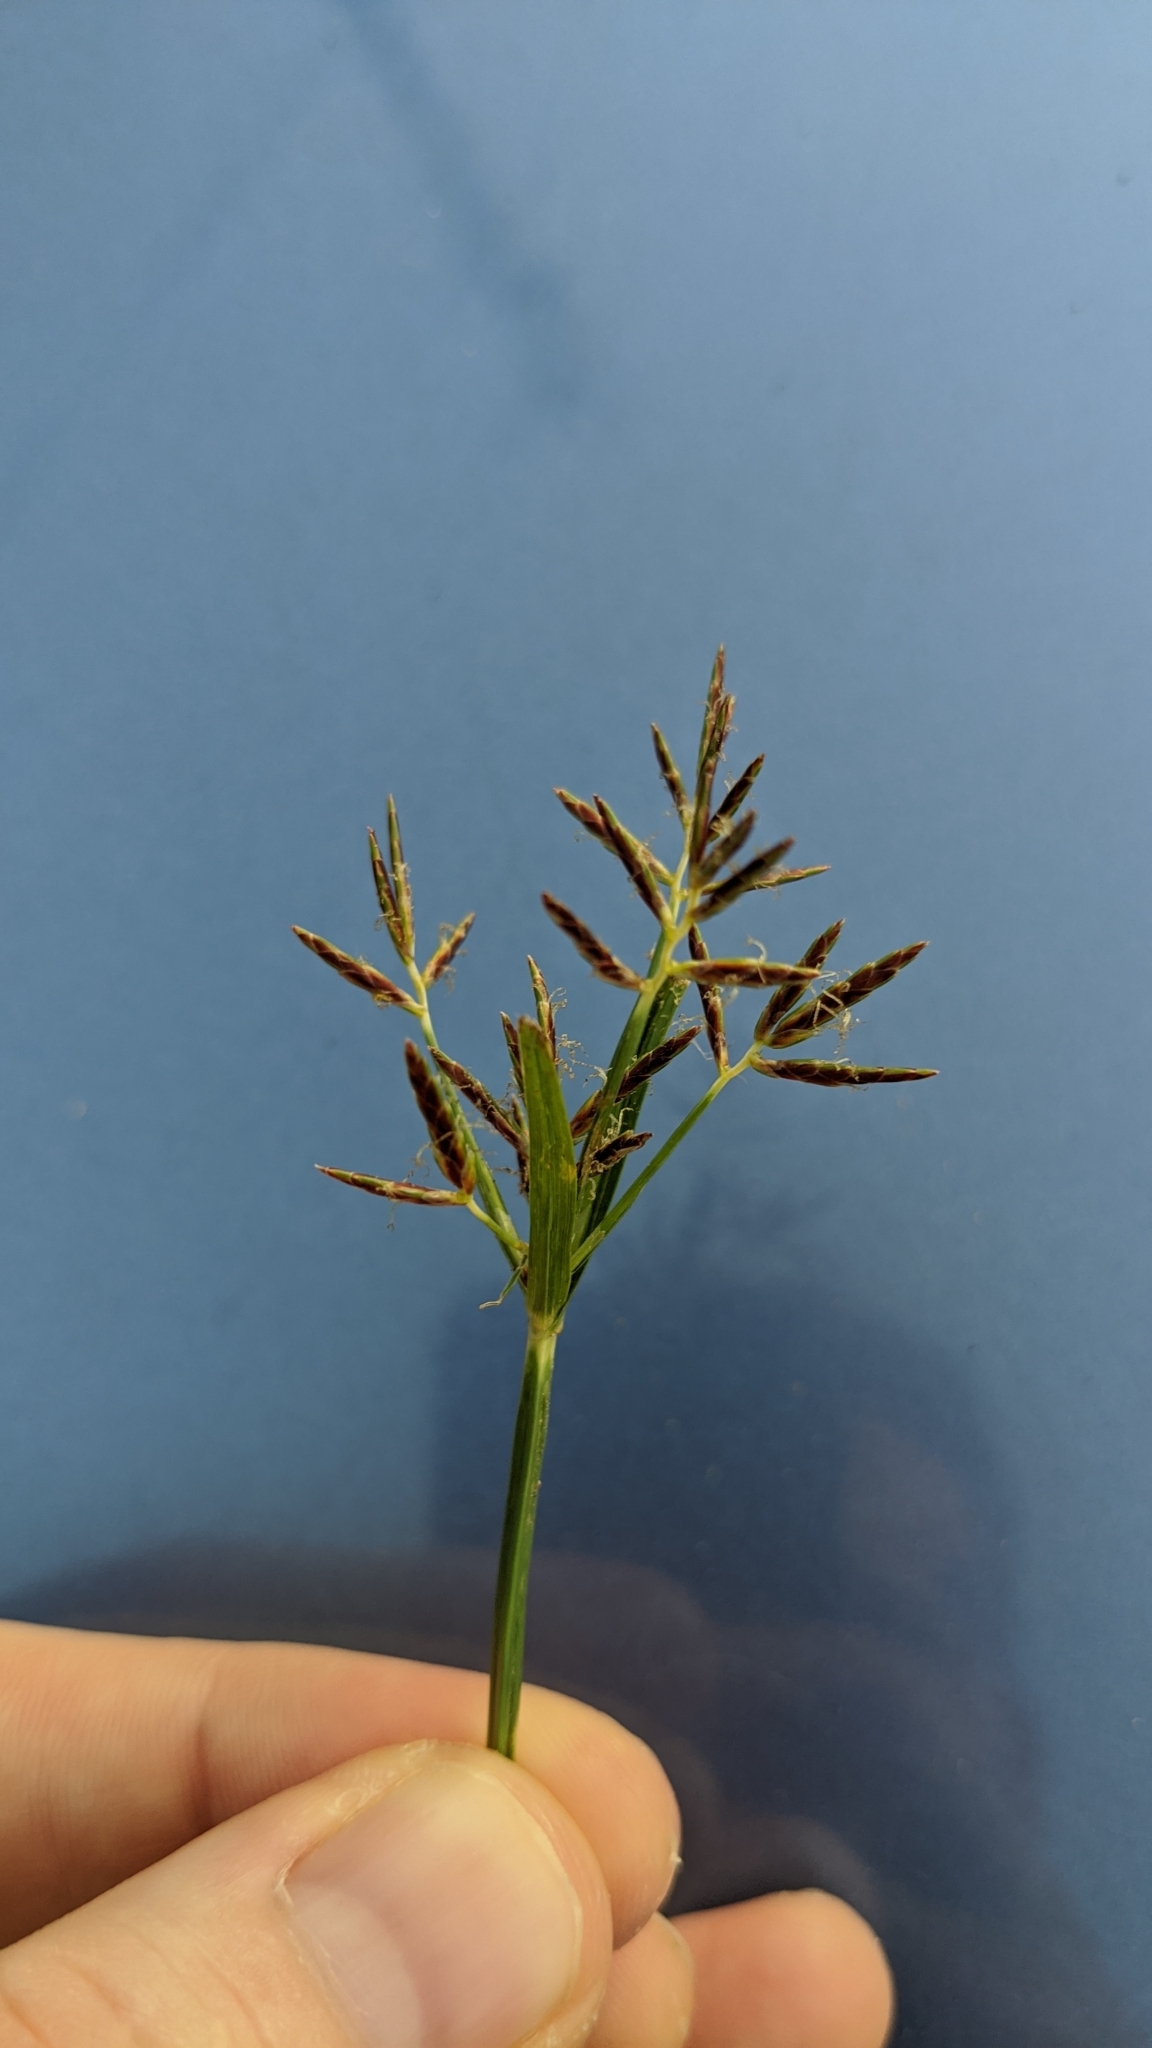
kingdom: Plantae
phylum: Tracheophyta
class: Liliopsida
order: Poales
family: Cyperaceae
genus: Cyperus
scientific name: Cyperus rotundus
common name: Nutgrass
